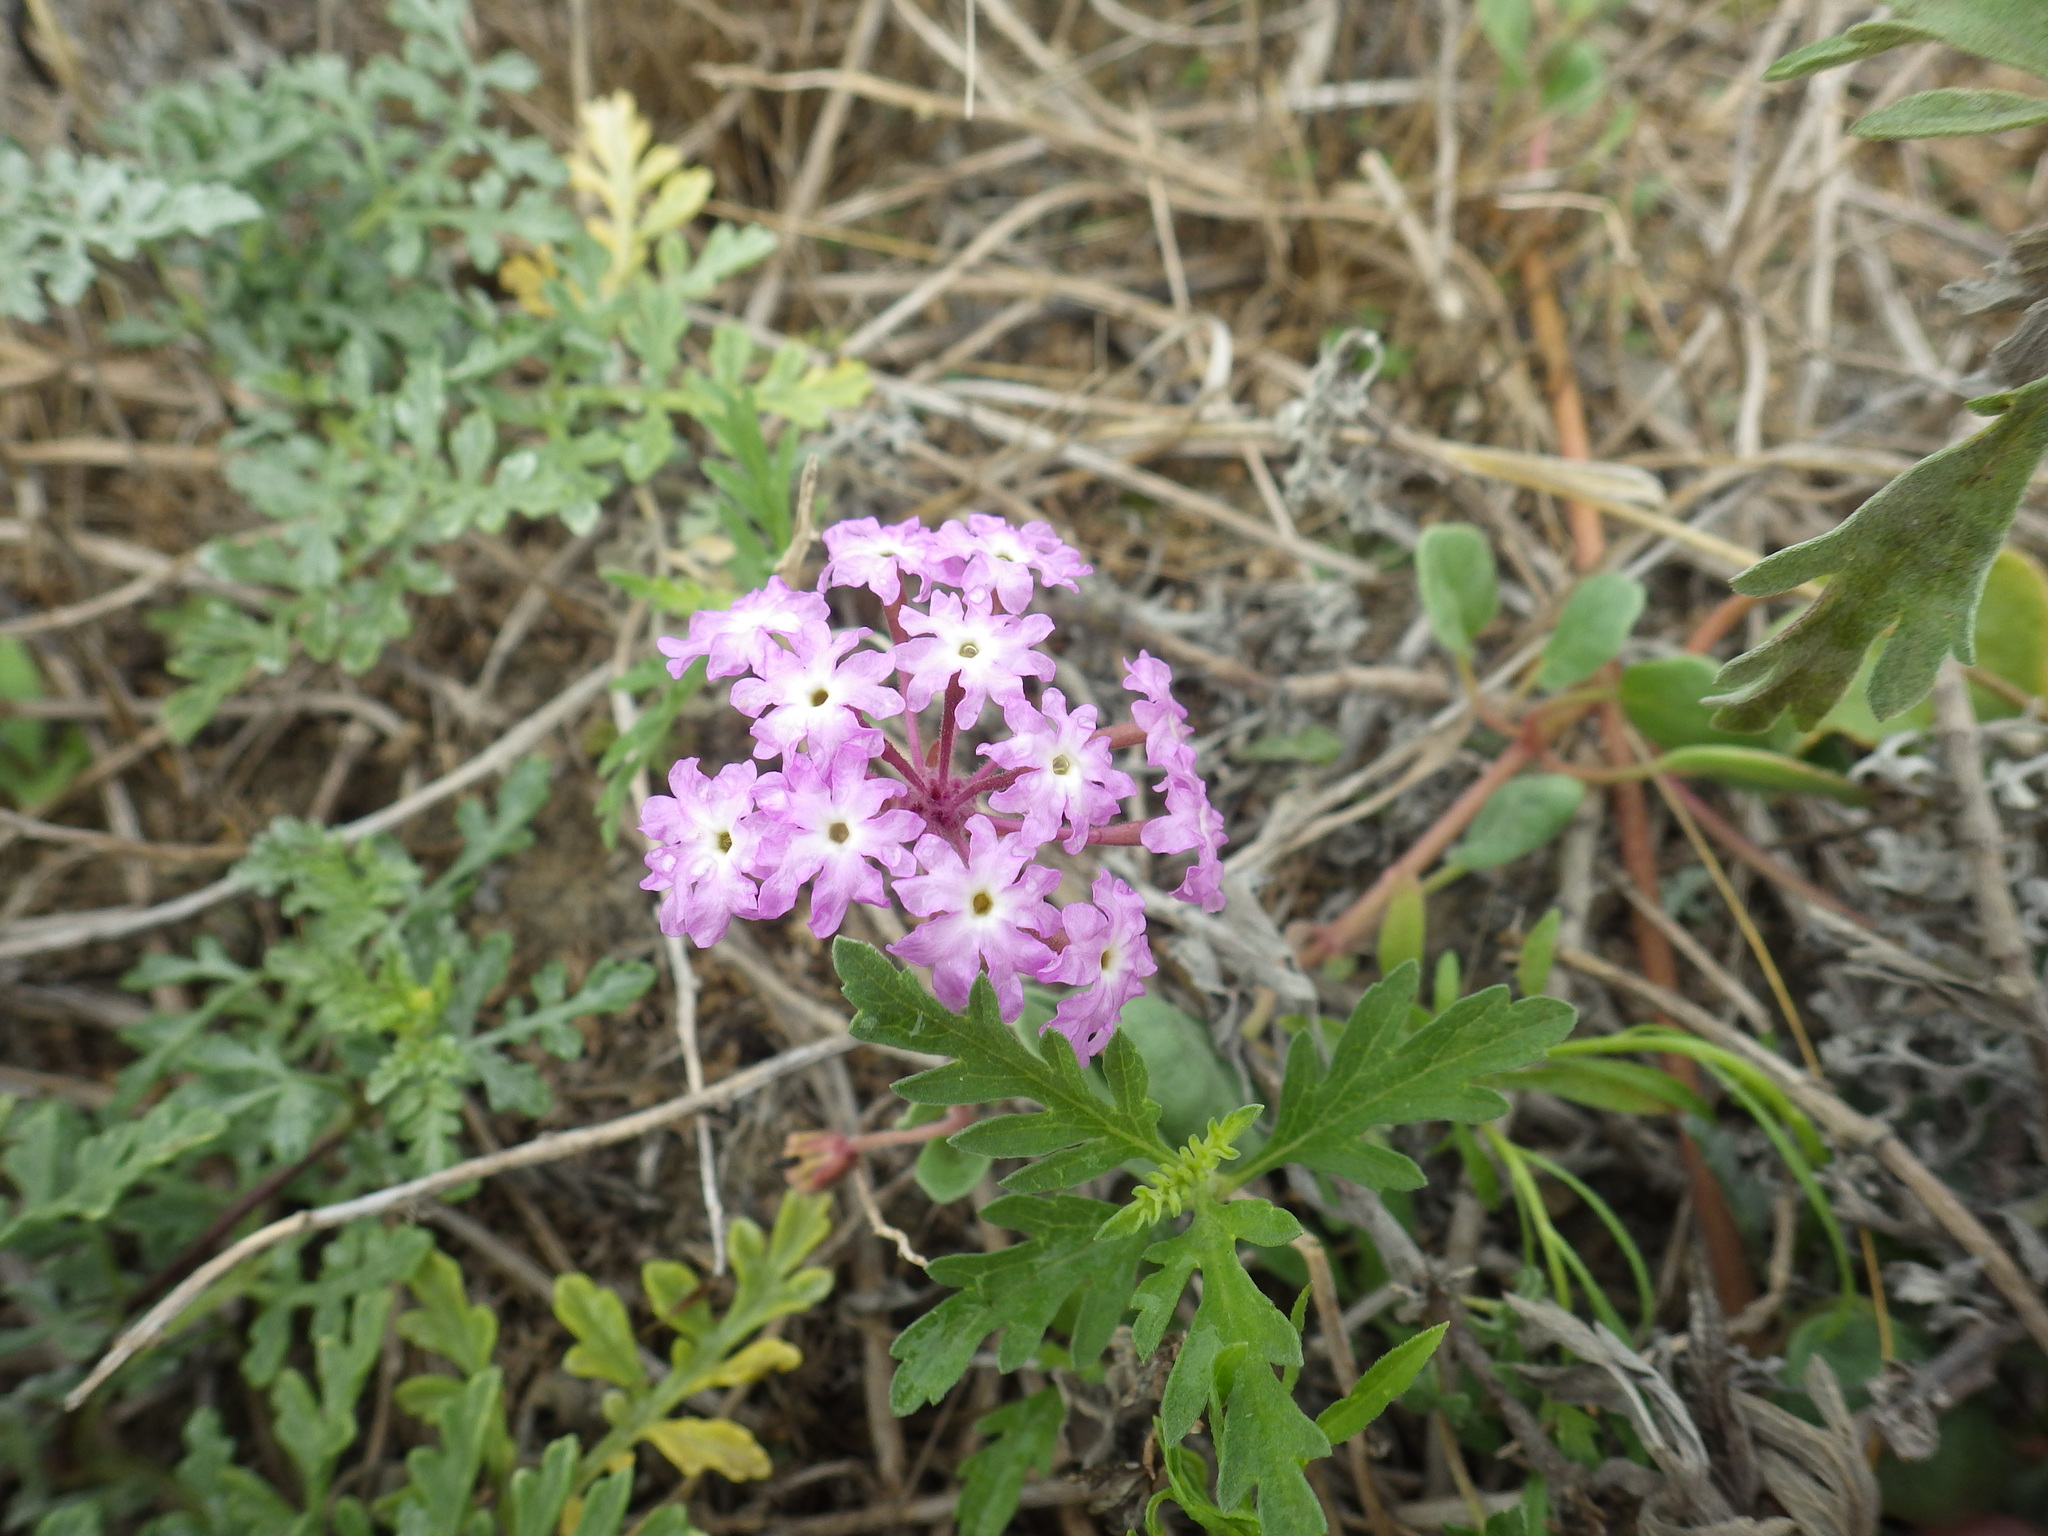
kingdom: Plantae
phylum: Tracheophyta
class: Magnoliopsida
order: Caryophyllales
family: Nyctaginaceae
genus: Abronia
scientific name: Abronia umbellata
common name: Sand-verbena
